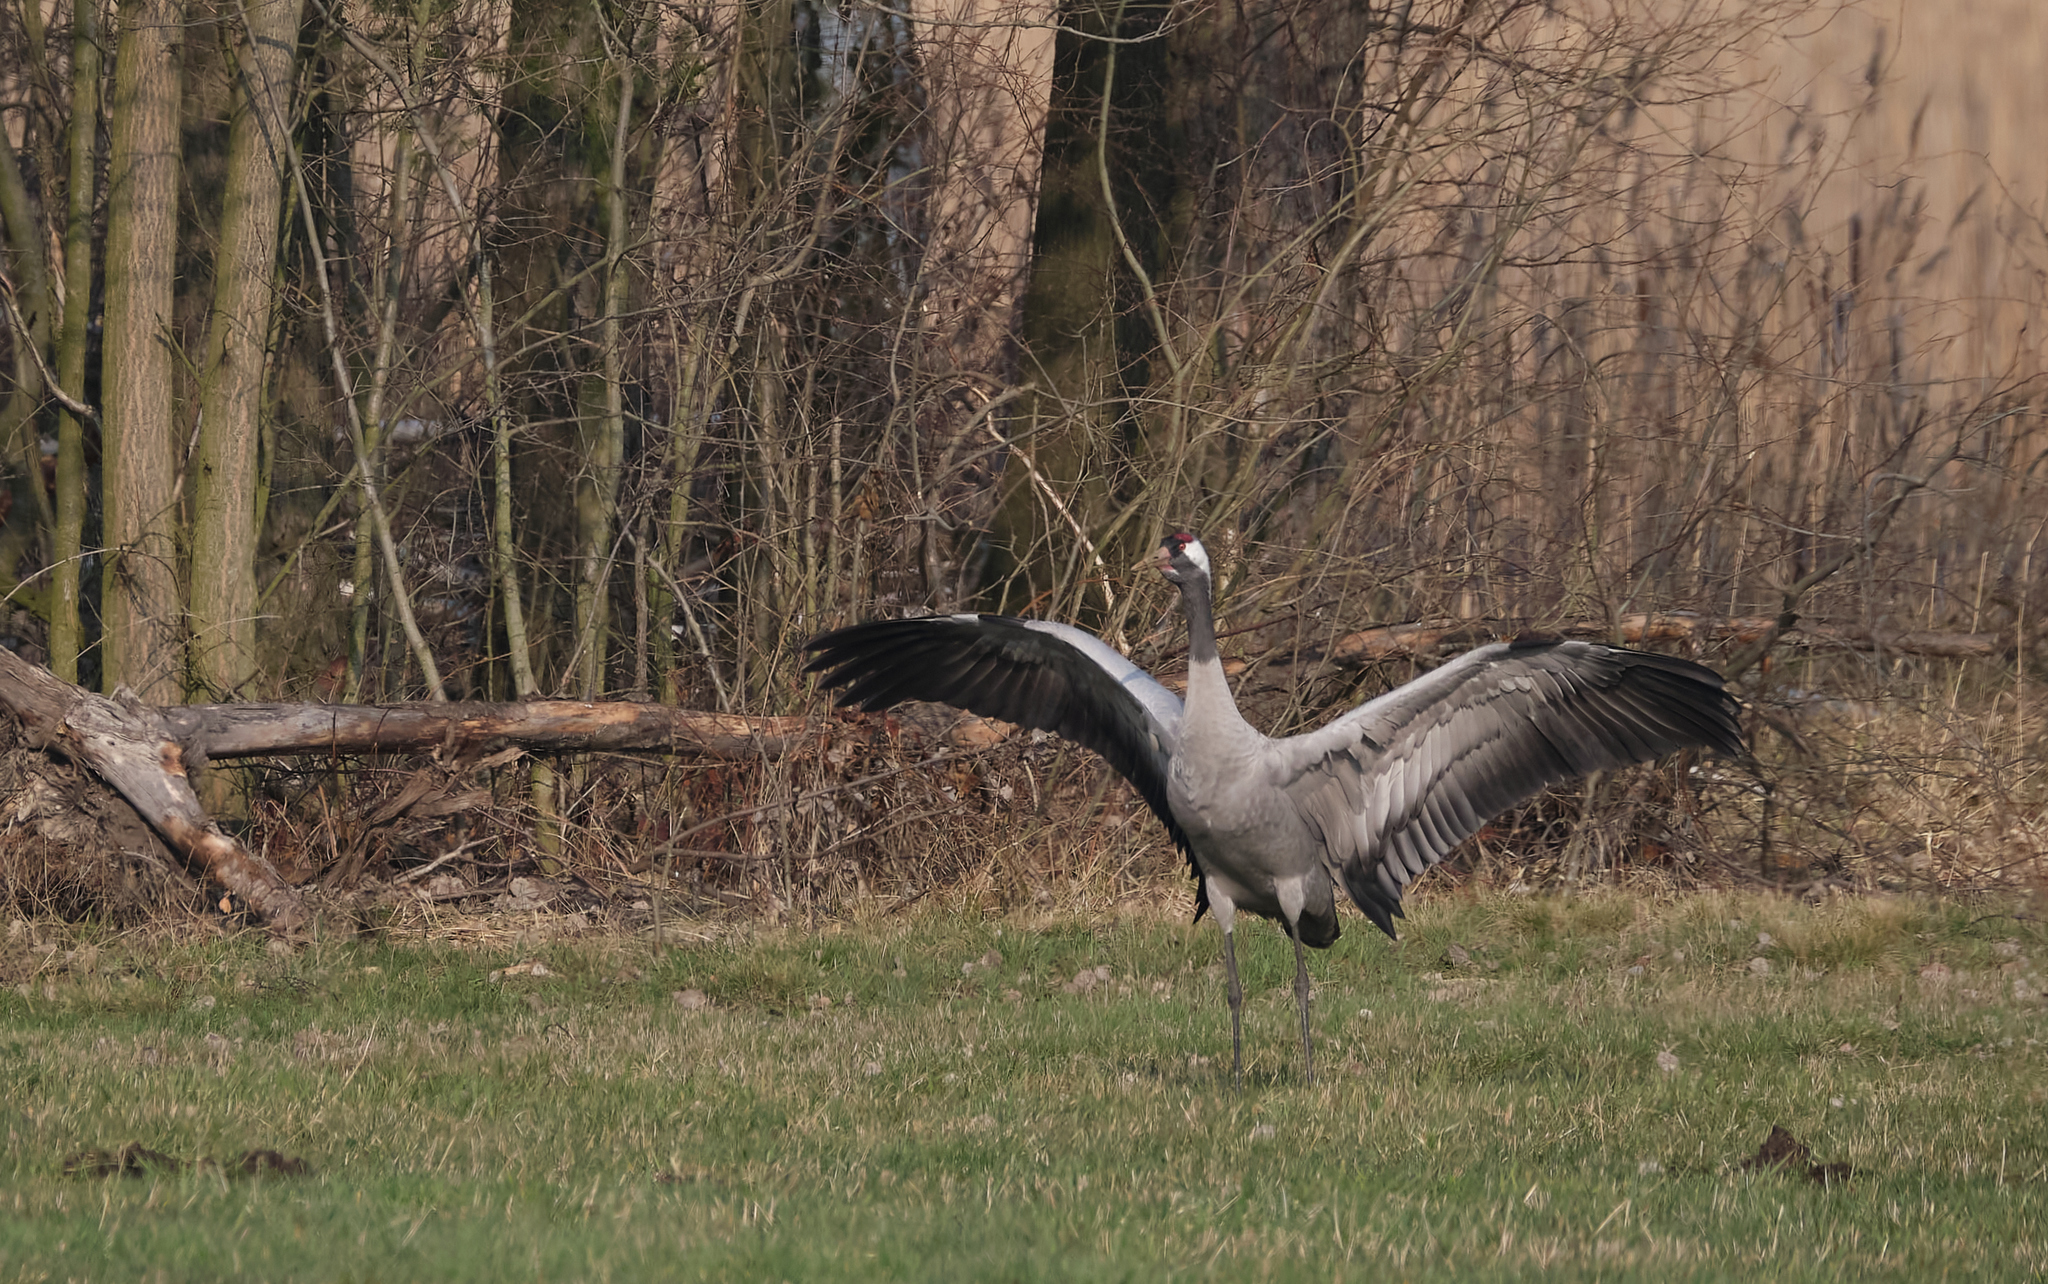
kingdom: Animalia
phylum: Chordata
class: Aves
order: Gruiformes
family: Gruidae
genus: Grus
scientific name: Grus grus
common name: Common crane
